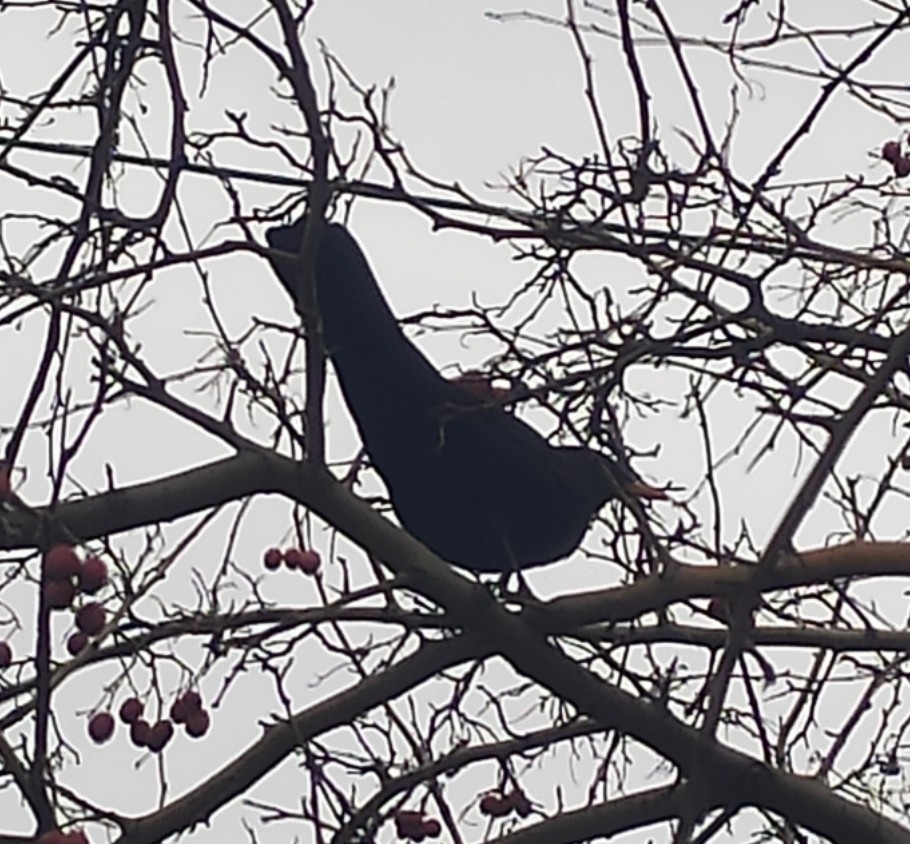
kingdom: Animalia
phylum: Chordata
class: Aves
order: Passeriformes
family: Turdidae
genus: Turdus
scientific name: Turdus merula
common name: Common blackbird
